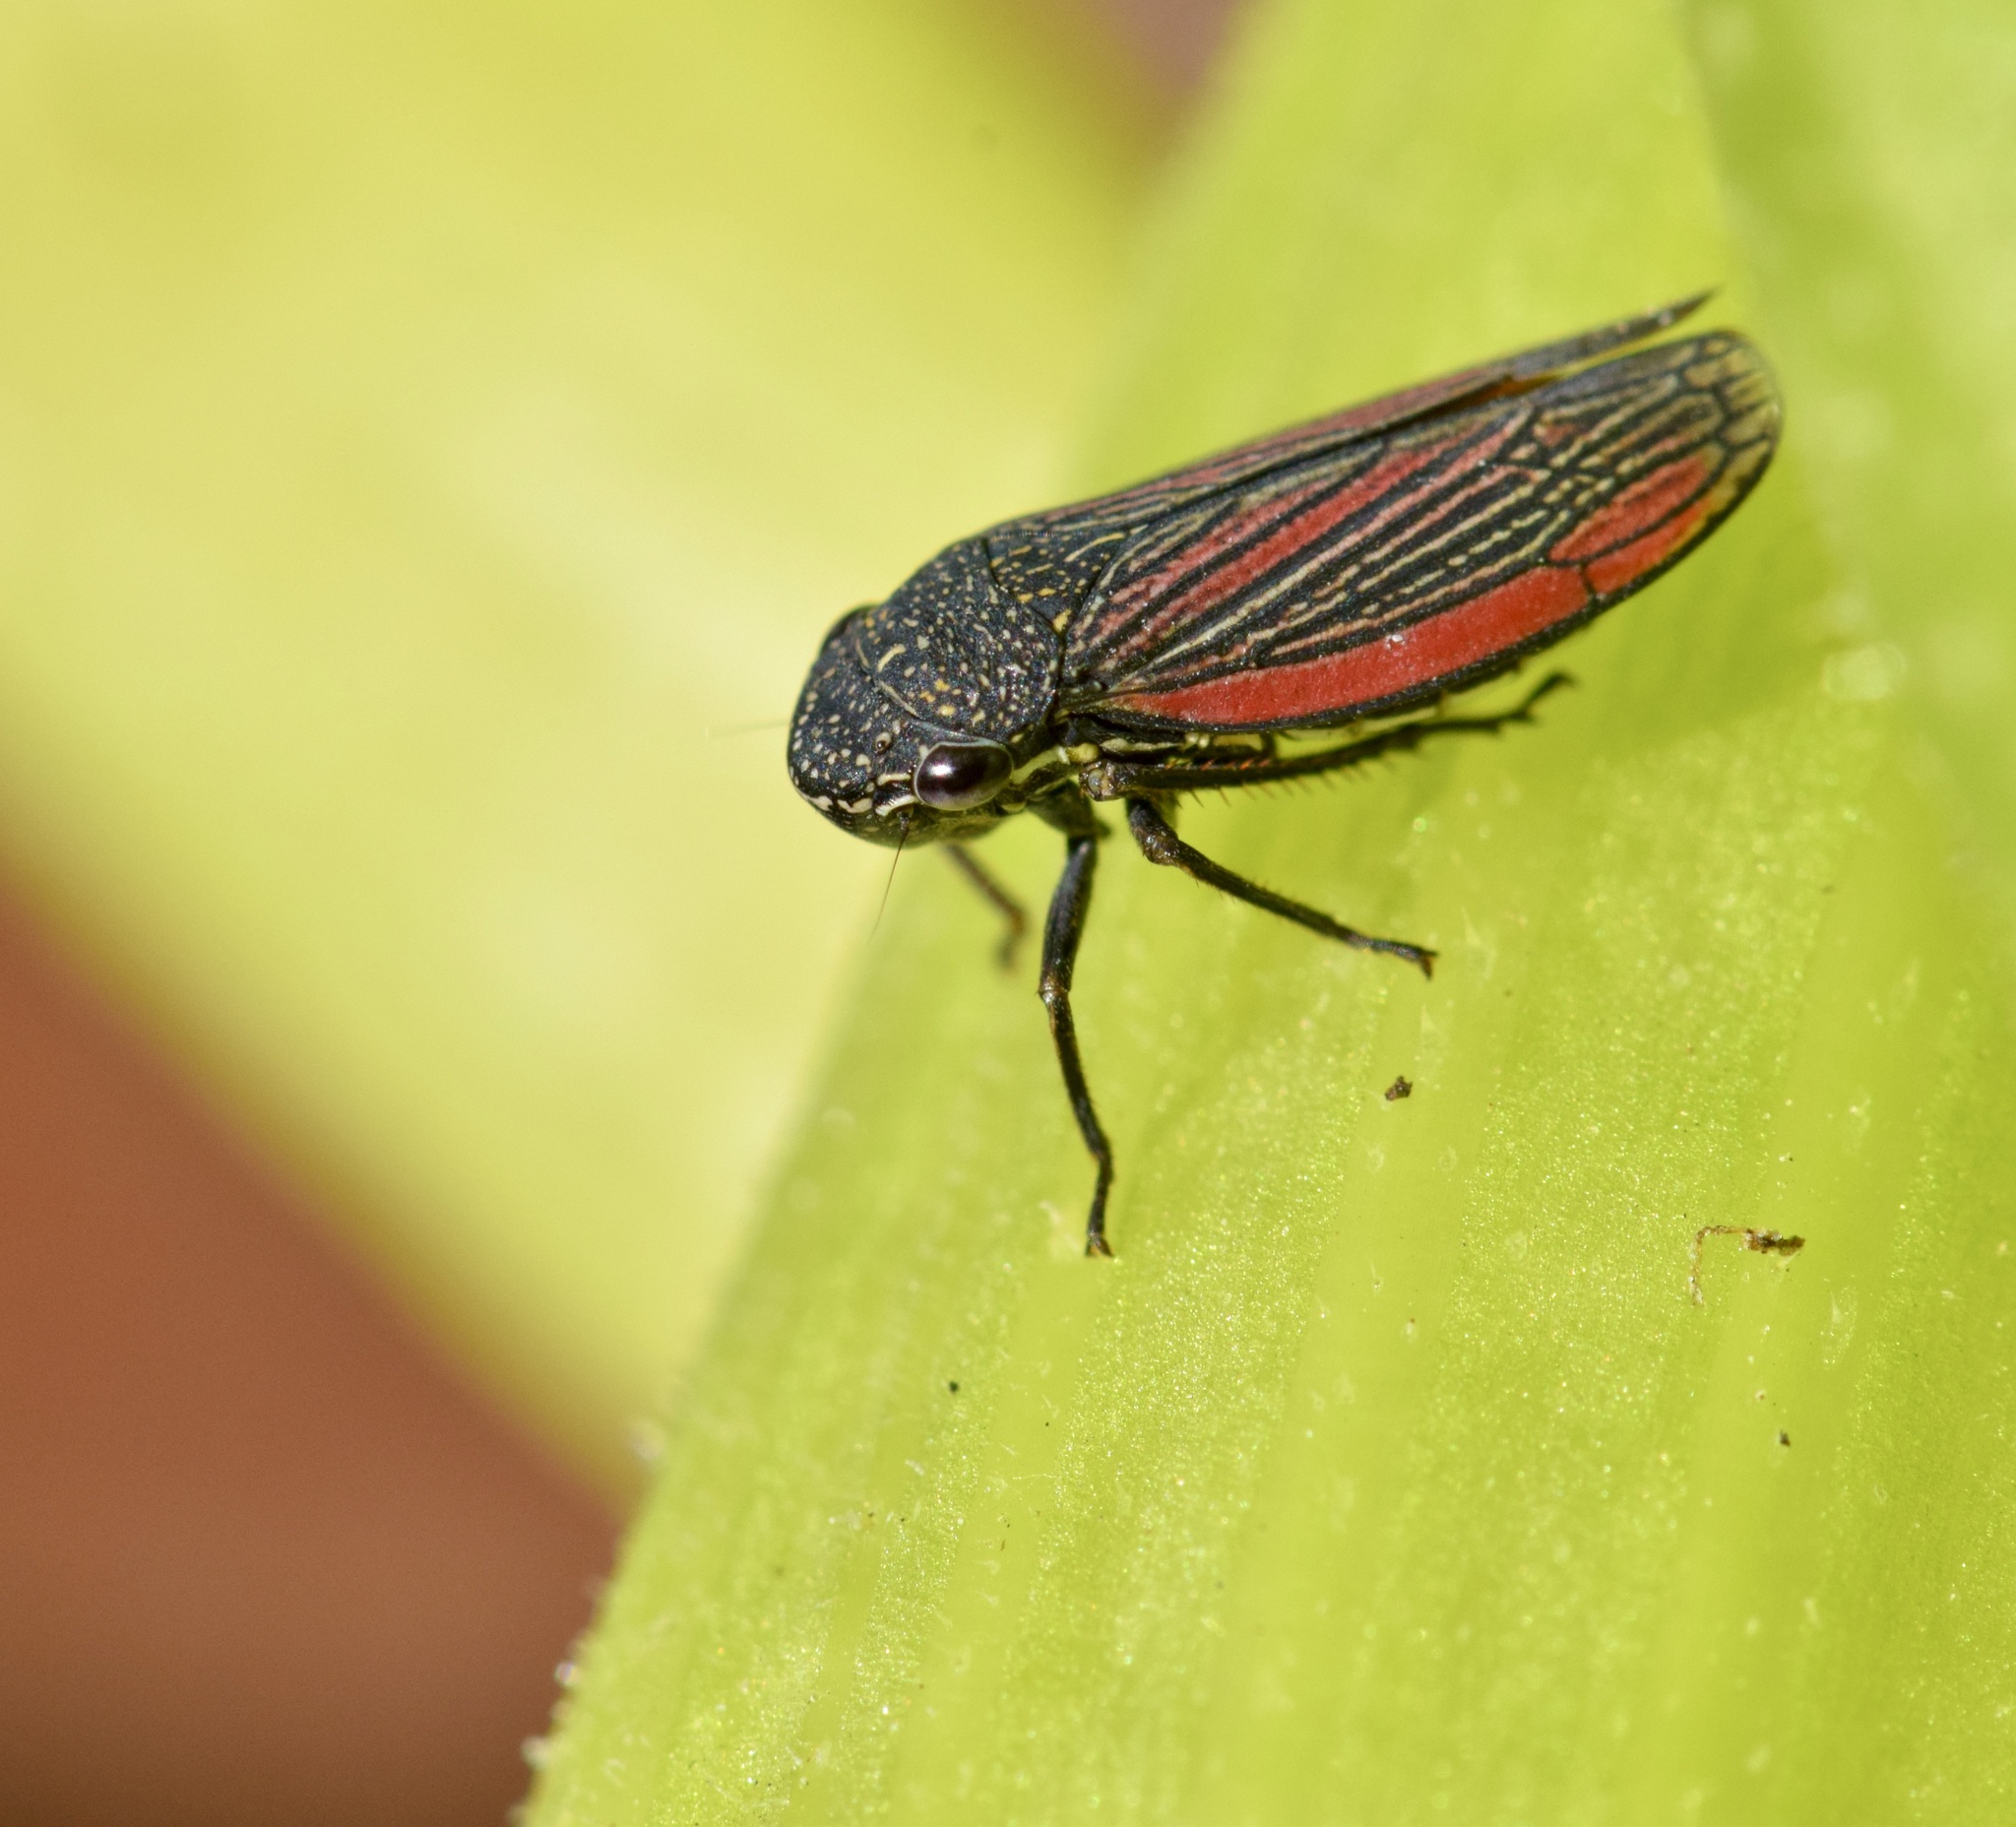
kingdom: Animalia
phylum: Arthropoda
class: Insecta
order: Hemiptera
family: Cicadellidae
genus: Cuerna
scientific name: Cuerna striata
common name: Striped leafhopper
